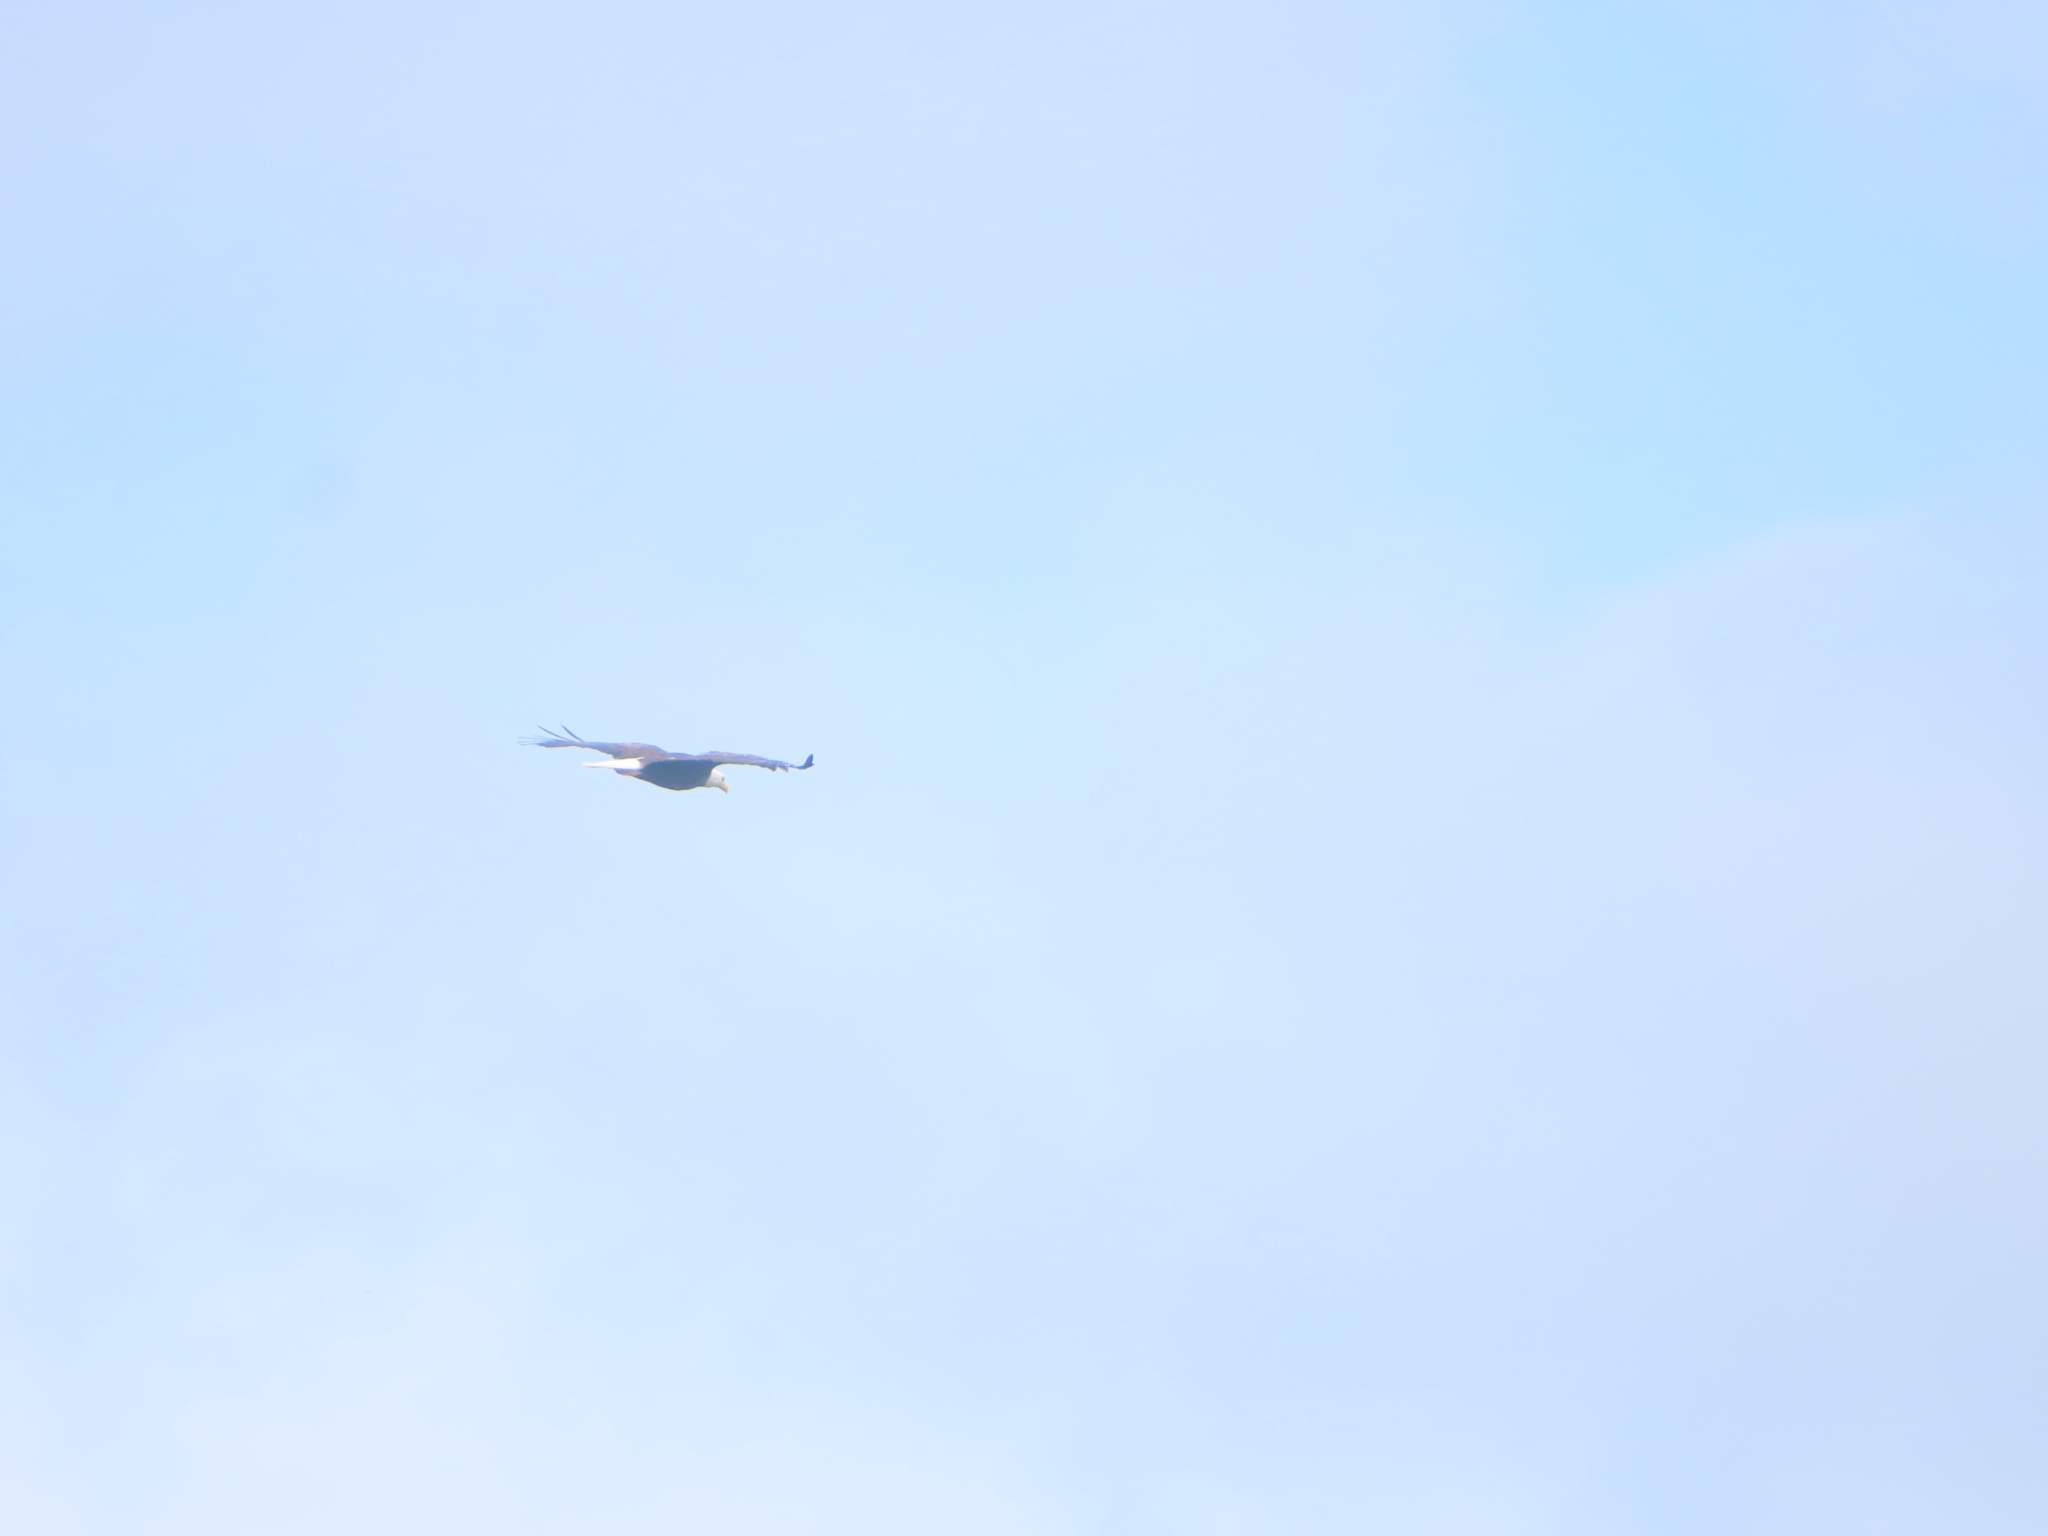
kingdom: Animalia
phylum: Chordata
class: Aves
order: Accipitriformes
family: Accipitridae
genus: Haliaeetus
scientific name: Haliaeetus leucocephalus
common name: Bald eagle
